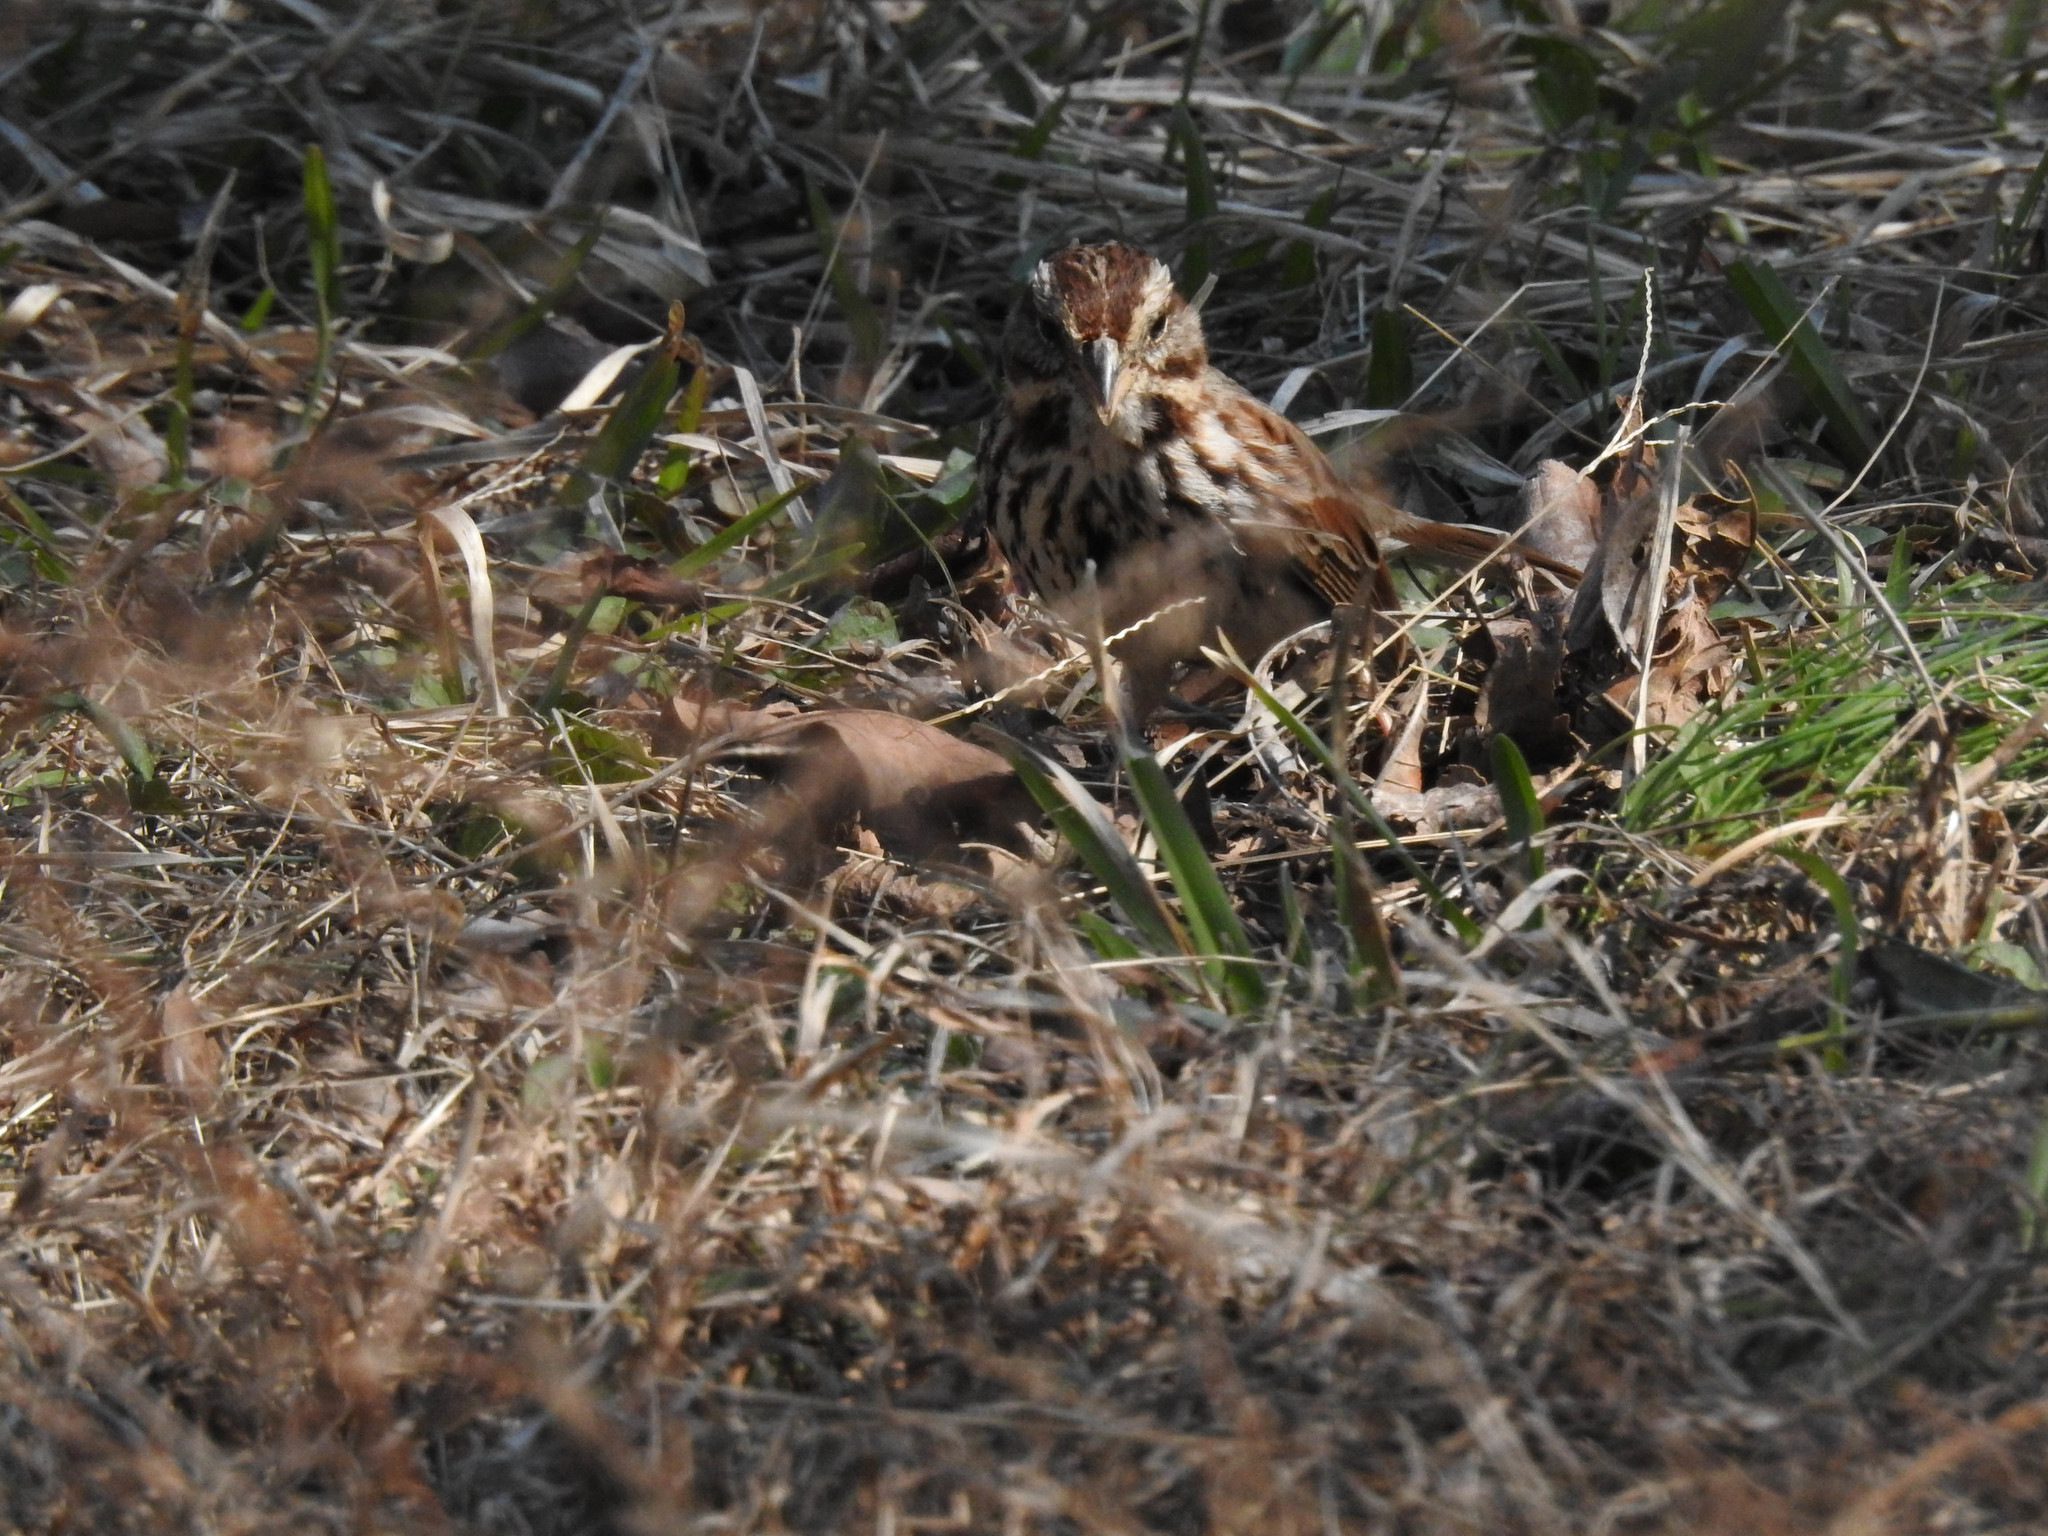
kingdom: Animalia
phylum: Chordata
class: Aves
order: Passeriformes
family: Passerellidae
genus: Melospiza
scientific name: Melospiza melodia
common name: Song sparrow
